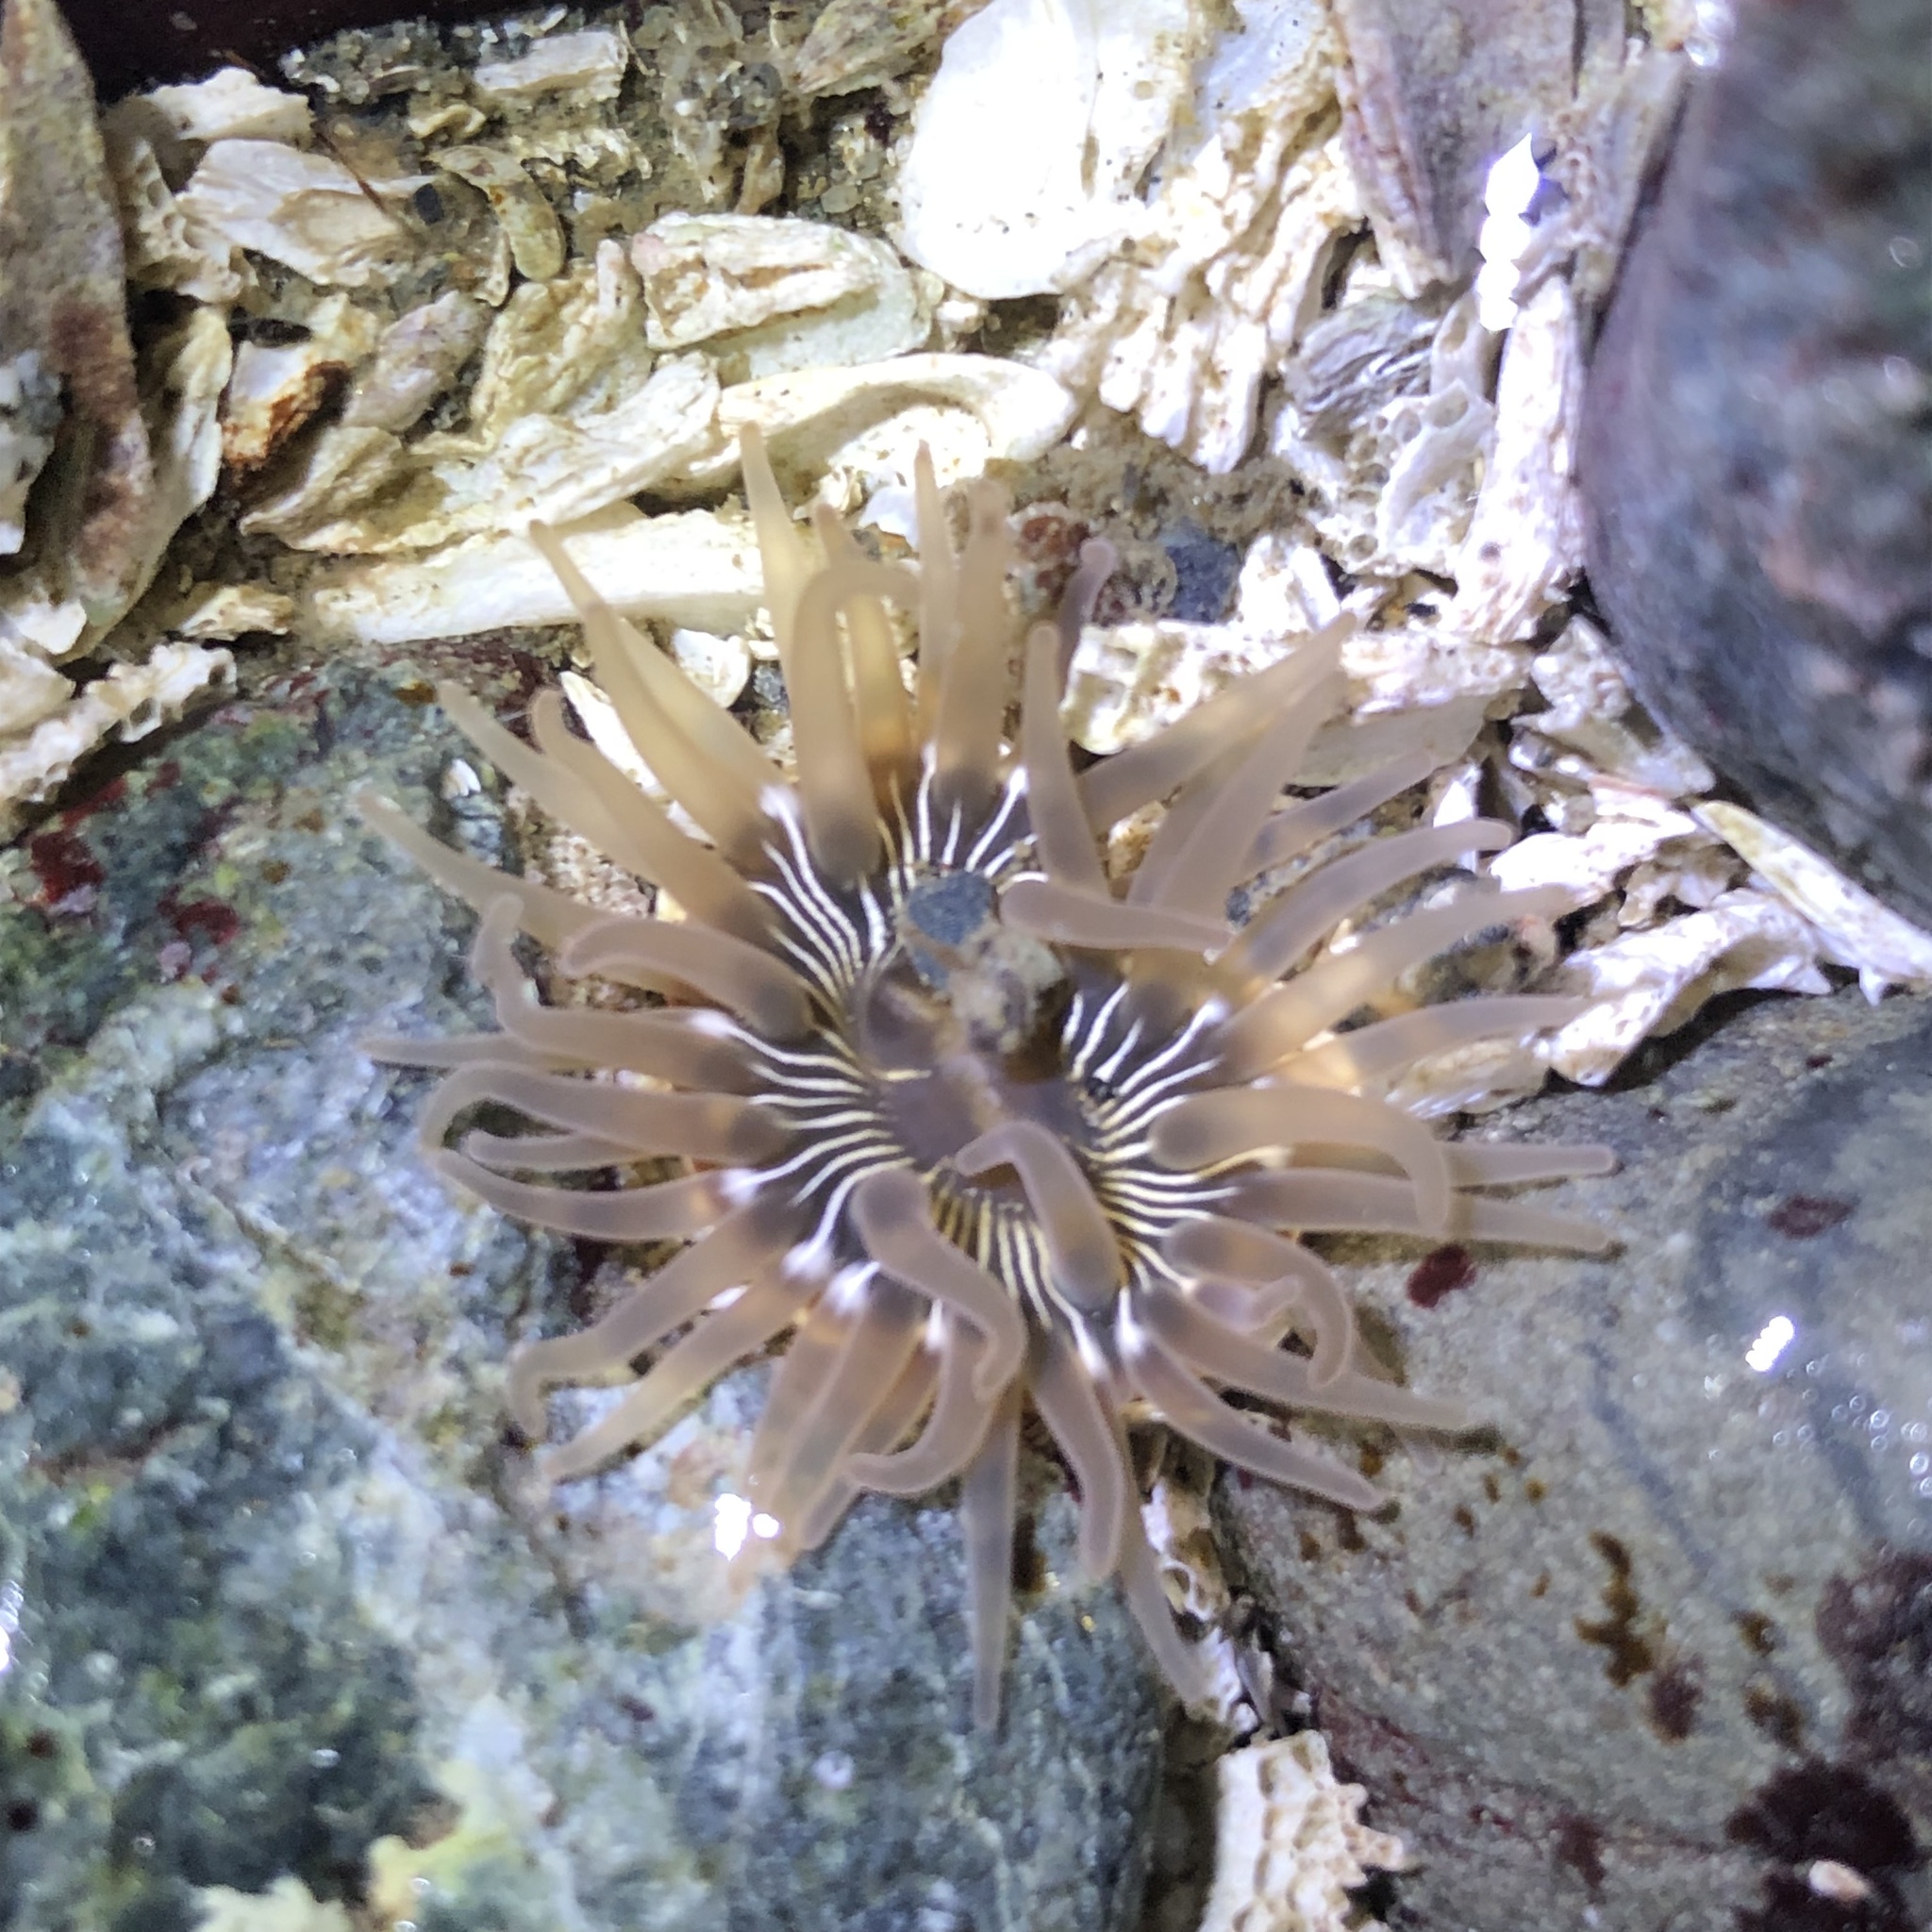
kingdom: Animalia
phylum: Cnidaria
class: Anthozoa
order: Actiniaria
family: Actiniidae
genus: Aulactinia
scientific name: Aulactinia incubans
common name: Incubating anemone
